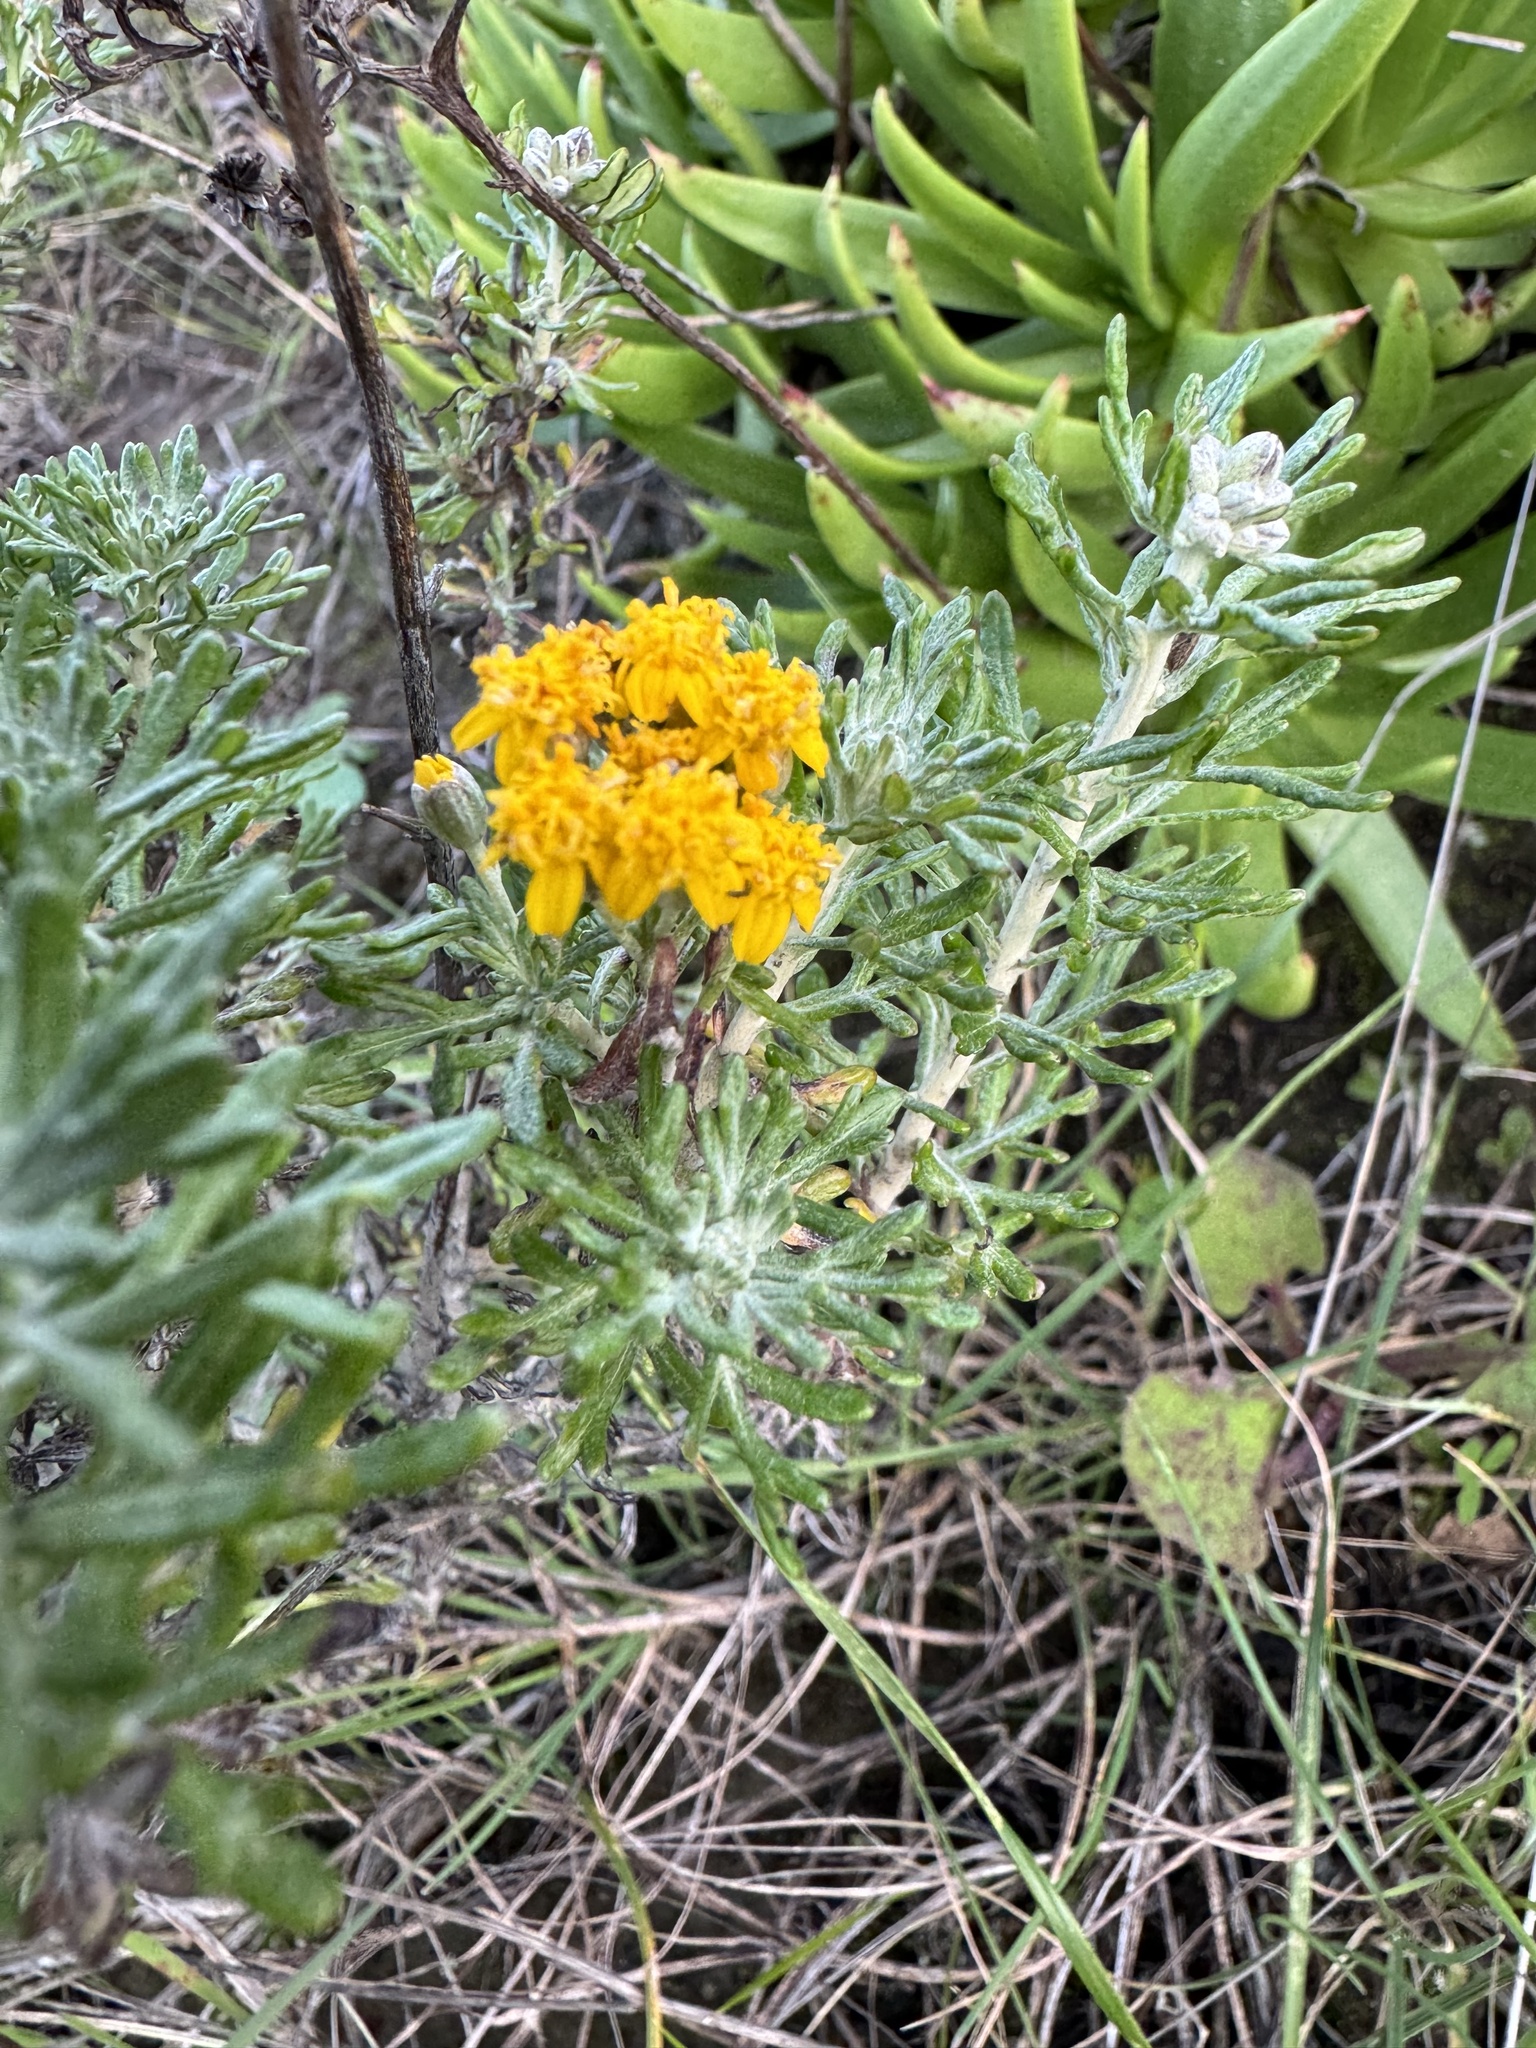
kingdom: Plantae
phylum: Tracheophyta
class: Magnoliopsida
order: Asterales
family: Asteraceae
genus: Eriophyllum
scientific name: Eriophyllum confertiflorum
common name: Golden-yarrow
